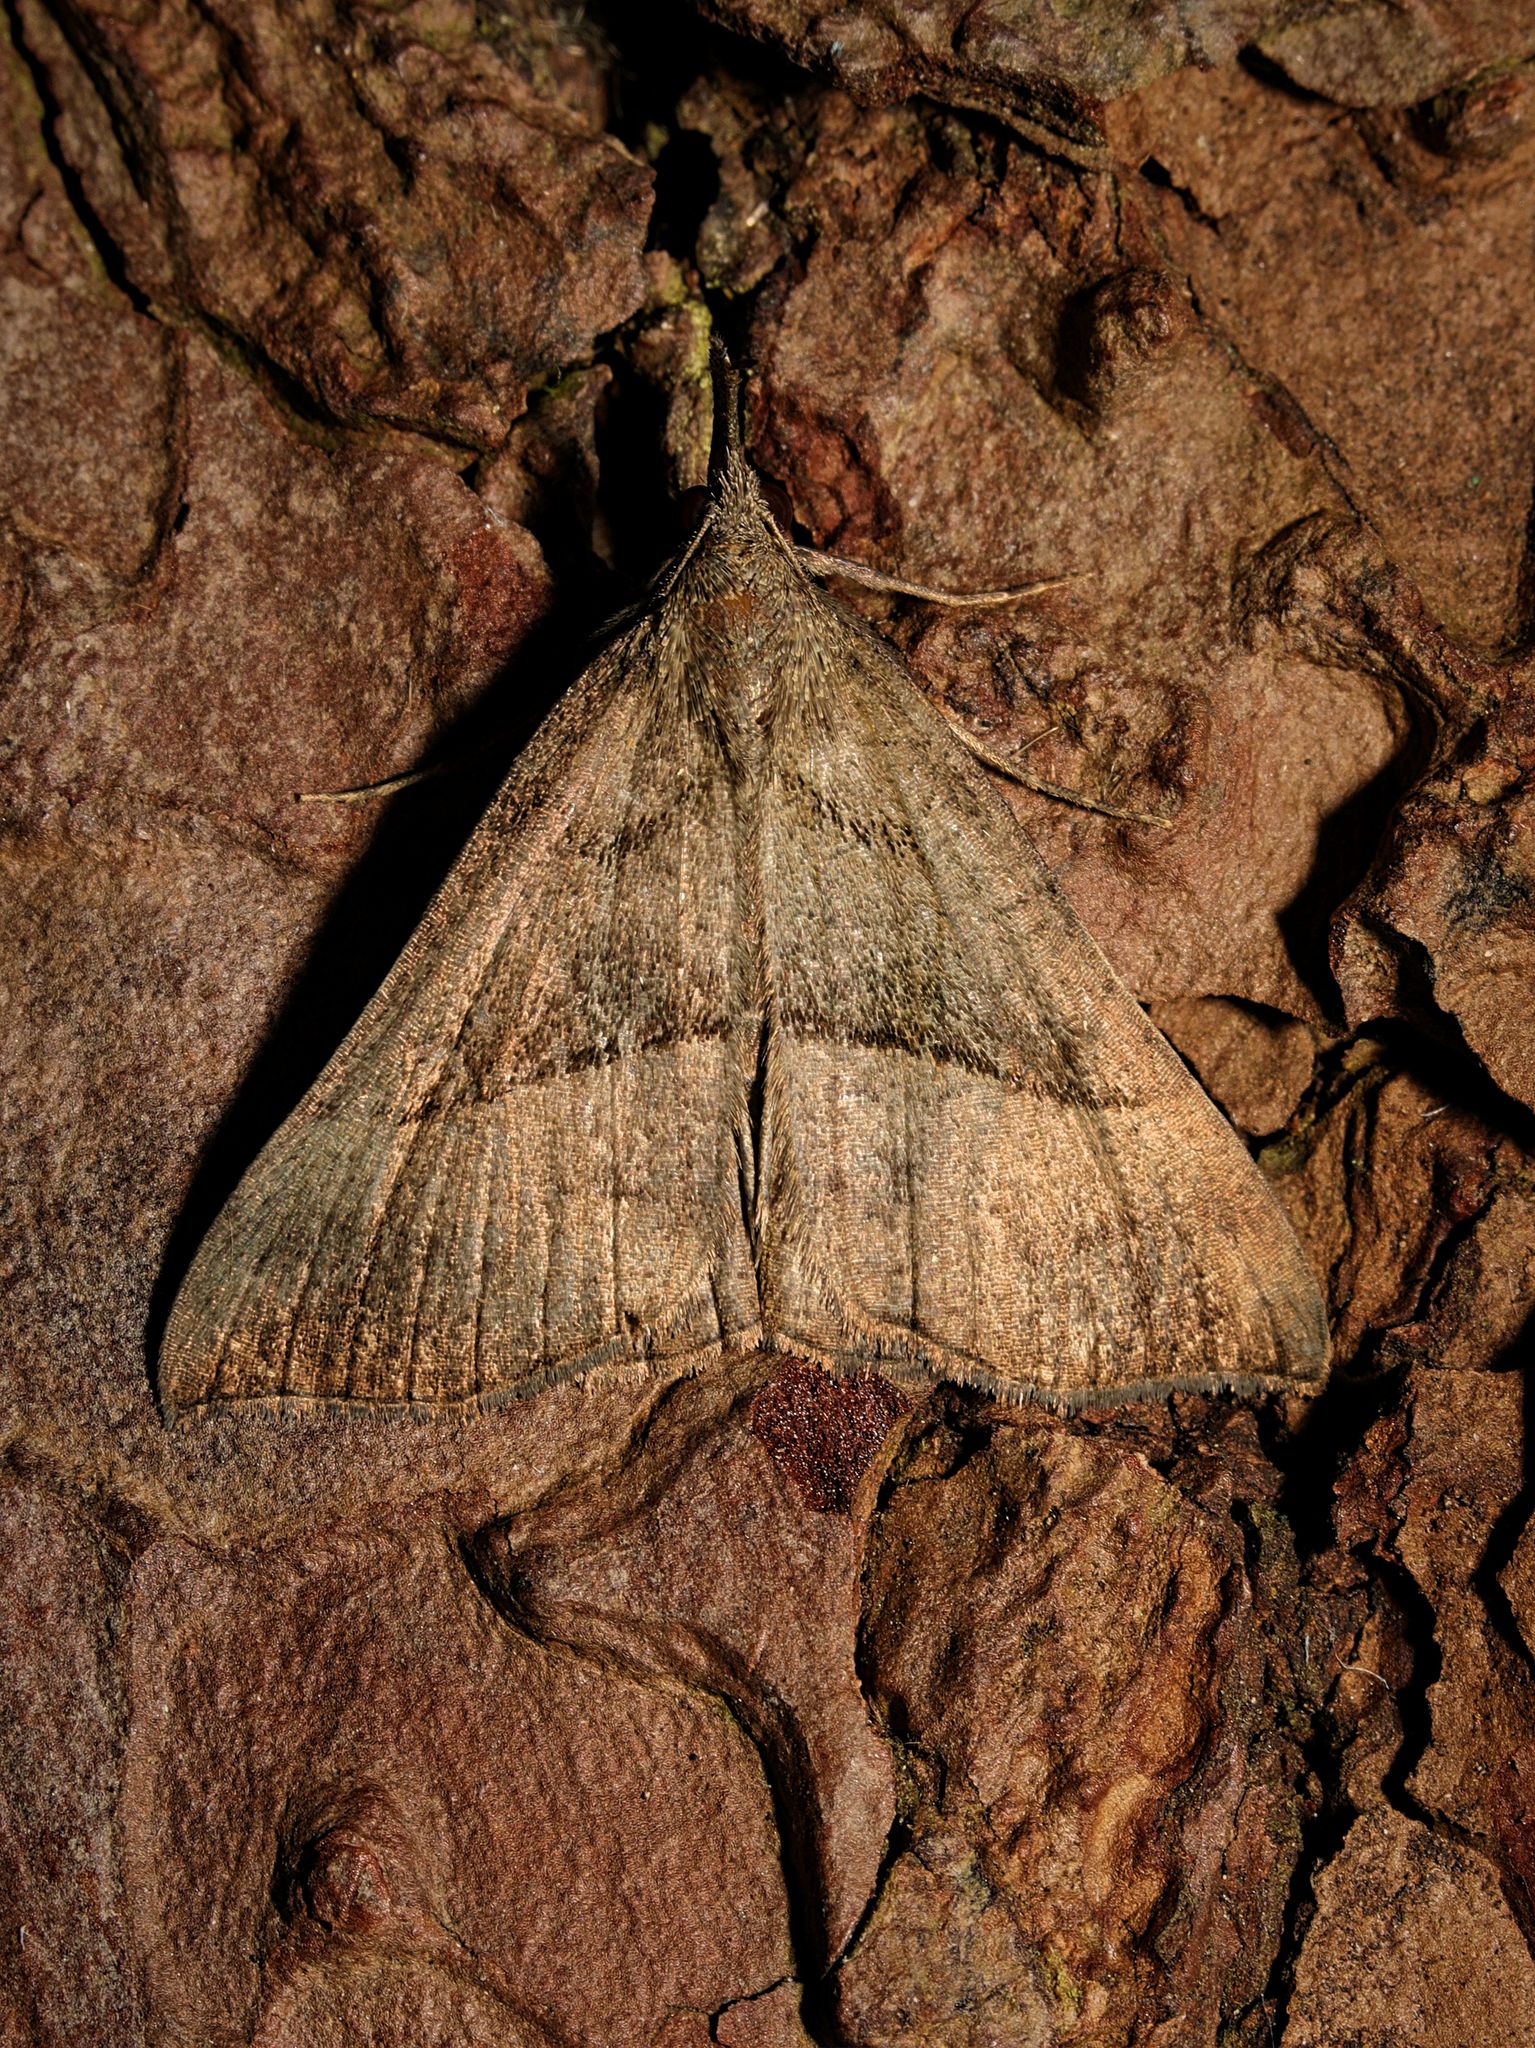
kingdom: Animalia
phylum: Arthropoda
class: Insecta
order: Lepidoptera
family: Erebidae
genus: Hypena
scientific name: Hypena proboscidalis
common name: Snout
